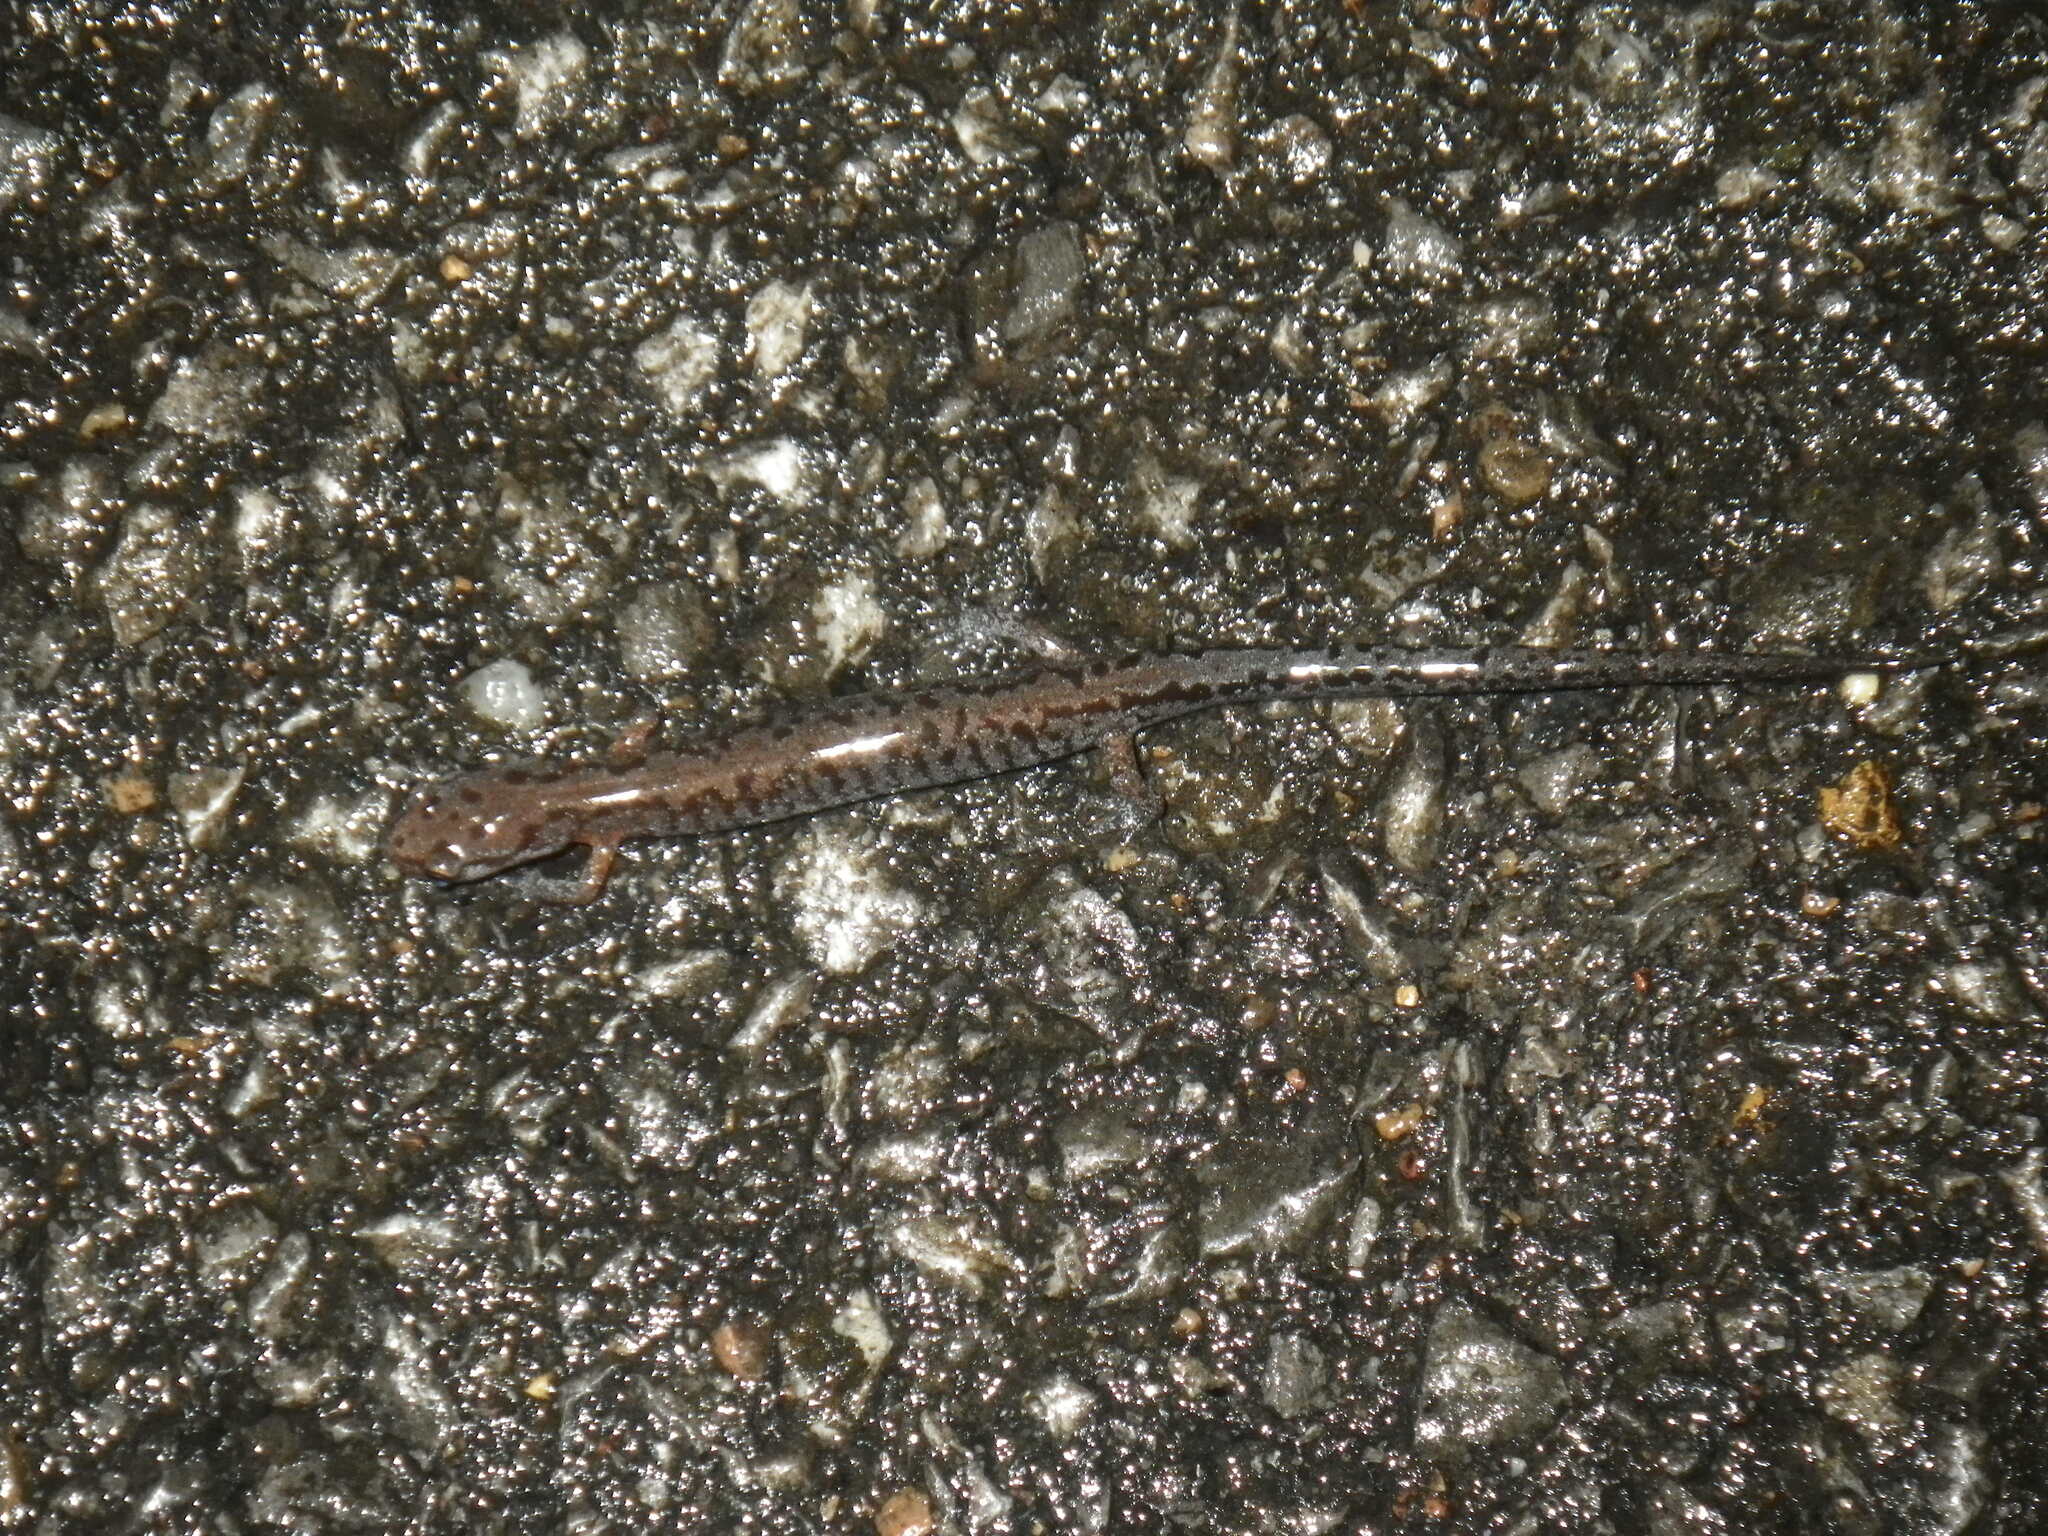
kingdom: Animalia
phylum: Chordata
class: Amphibia
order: Caudata
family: Plethodontidae
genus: Plethodon
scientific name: Plethodon dorsalis
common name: Northern zigzag salamander
